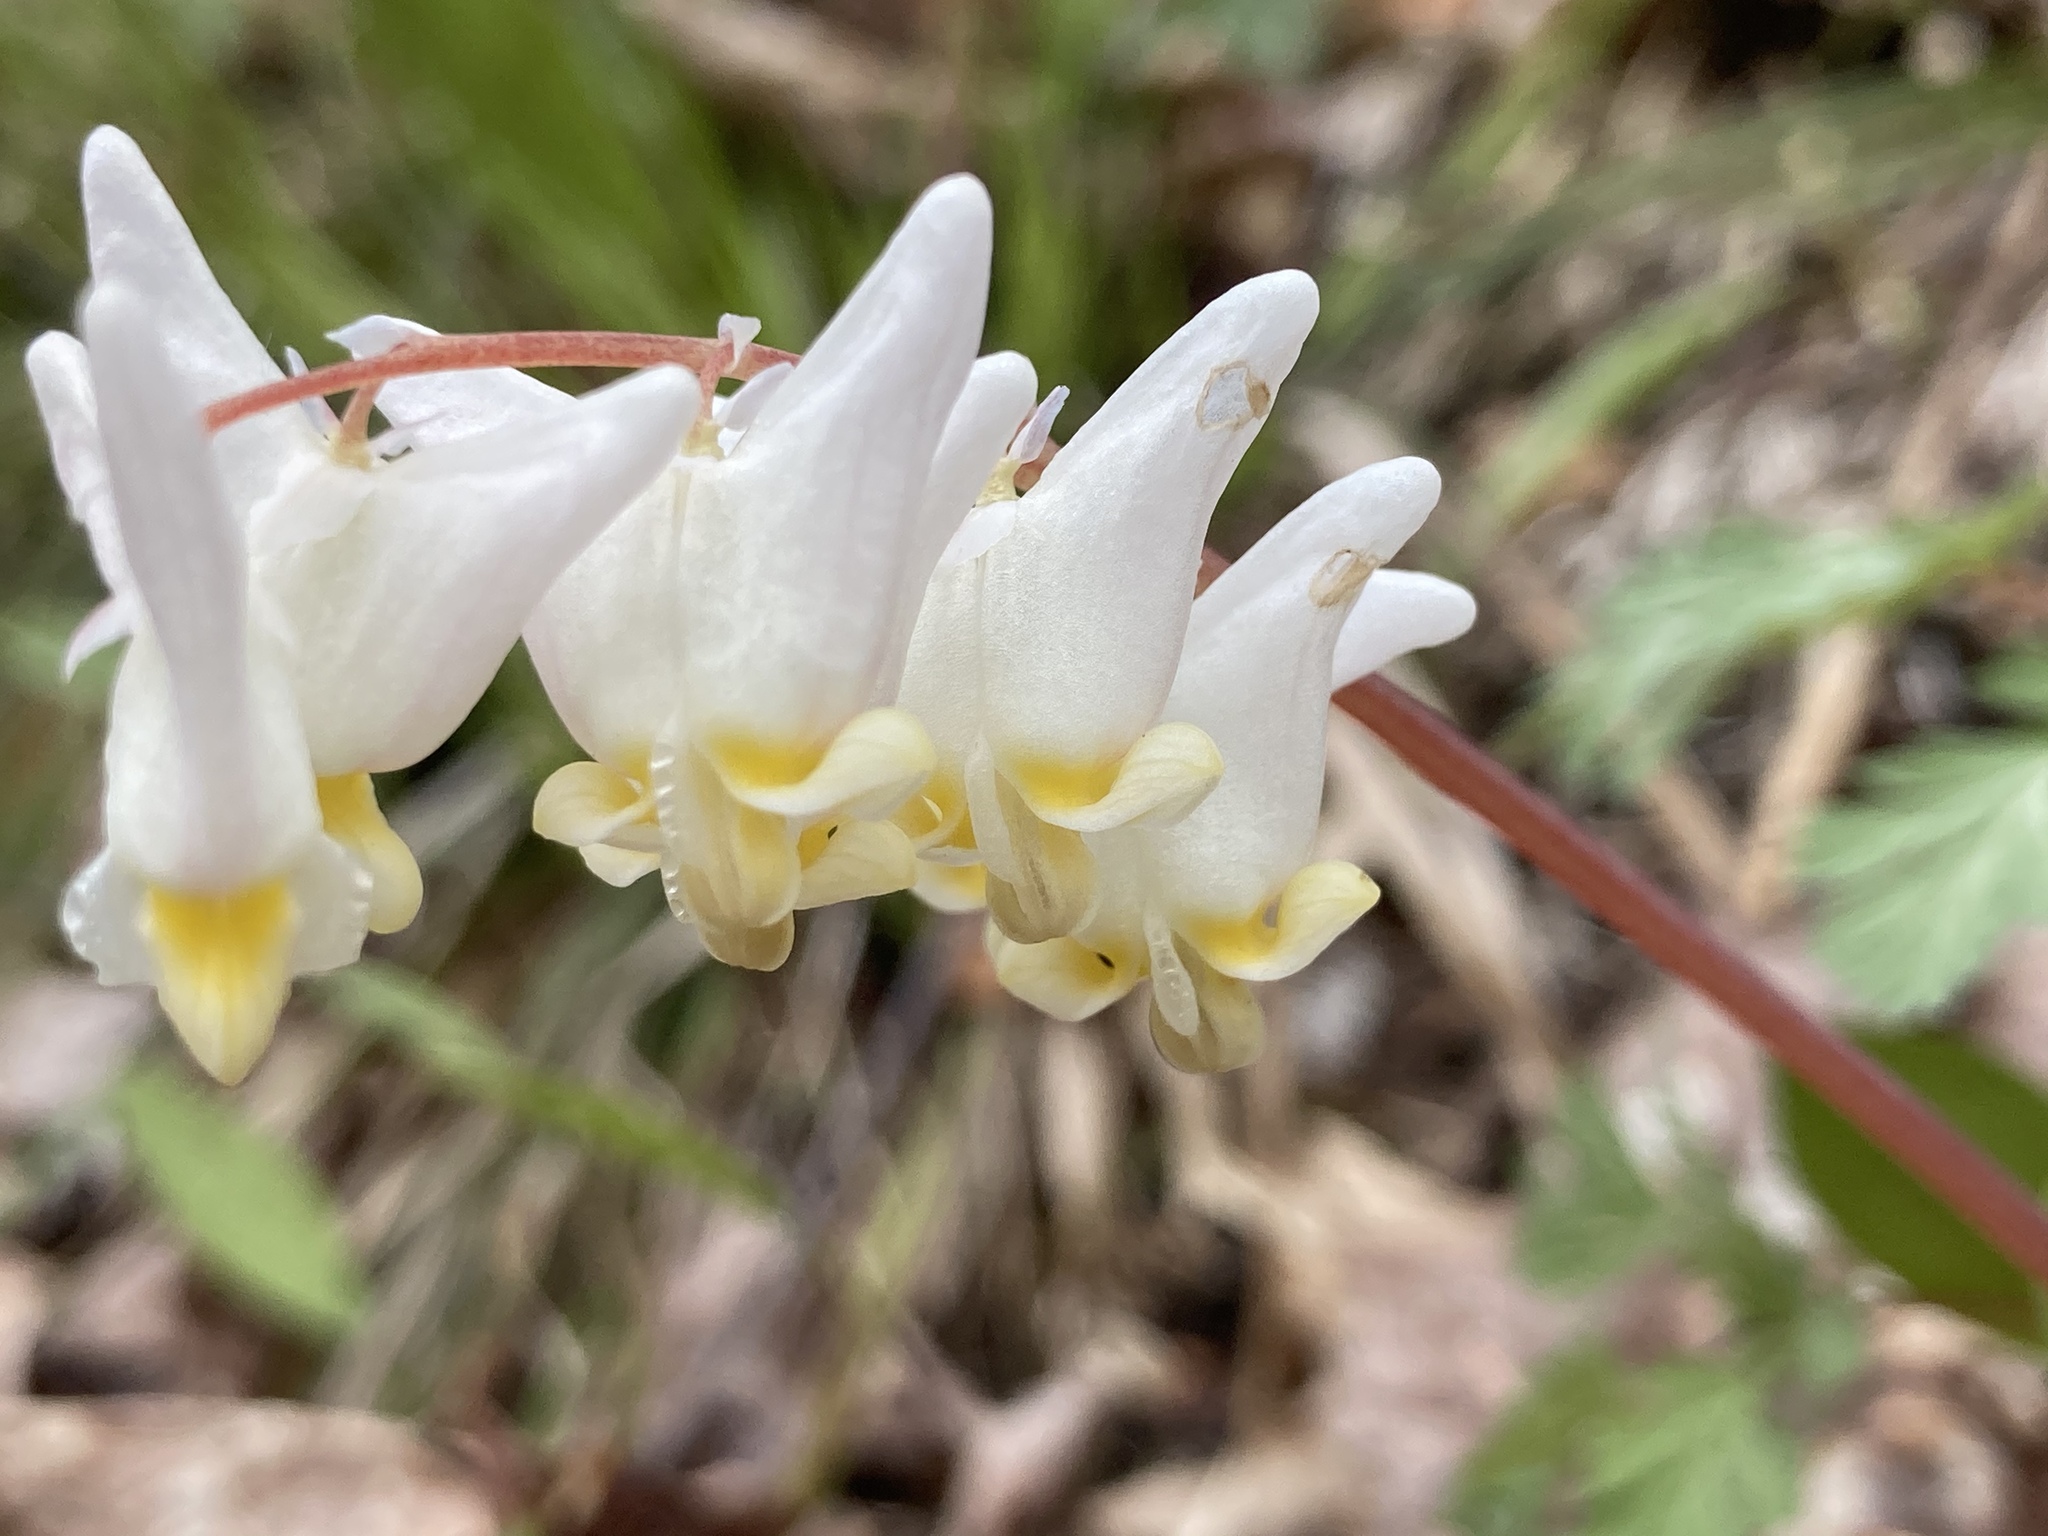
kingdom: Plantae
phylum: Tracheophyta
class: Magnoliopsida
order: Ranunculales
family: Papaveraceae
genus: Dicentra
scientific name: Dicentra cucullaria
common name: Dutchman's breeches
